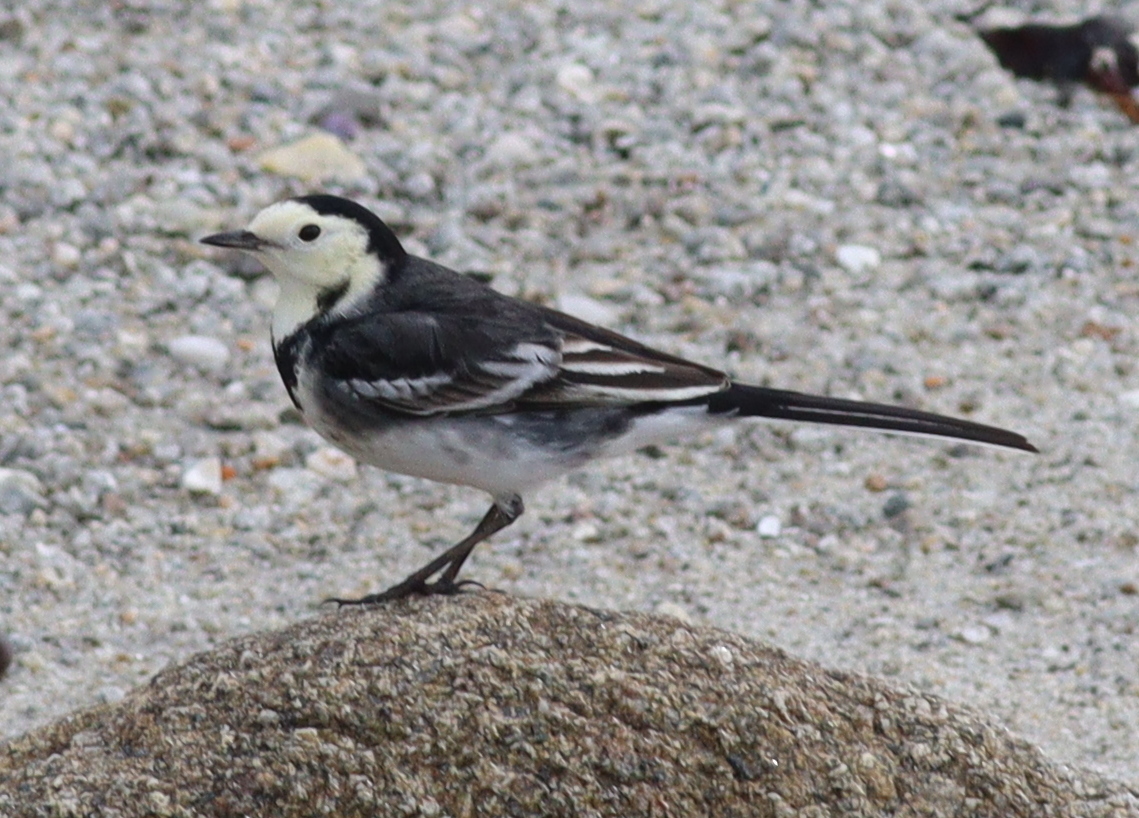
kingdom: Animalia
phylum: Chordata
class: Aves
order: Passeriformes
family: Motacillidae
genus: Motacilla
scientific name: Motacilla alba
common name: White wagtail
